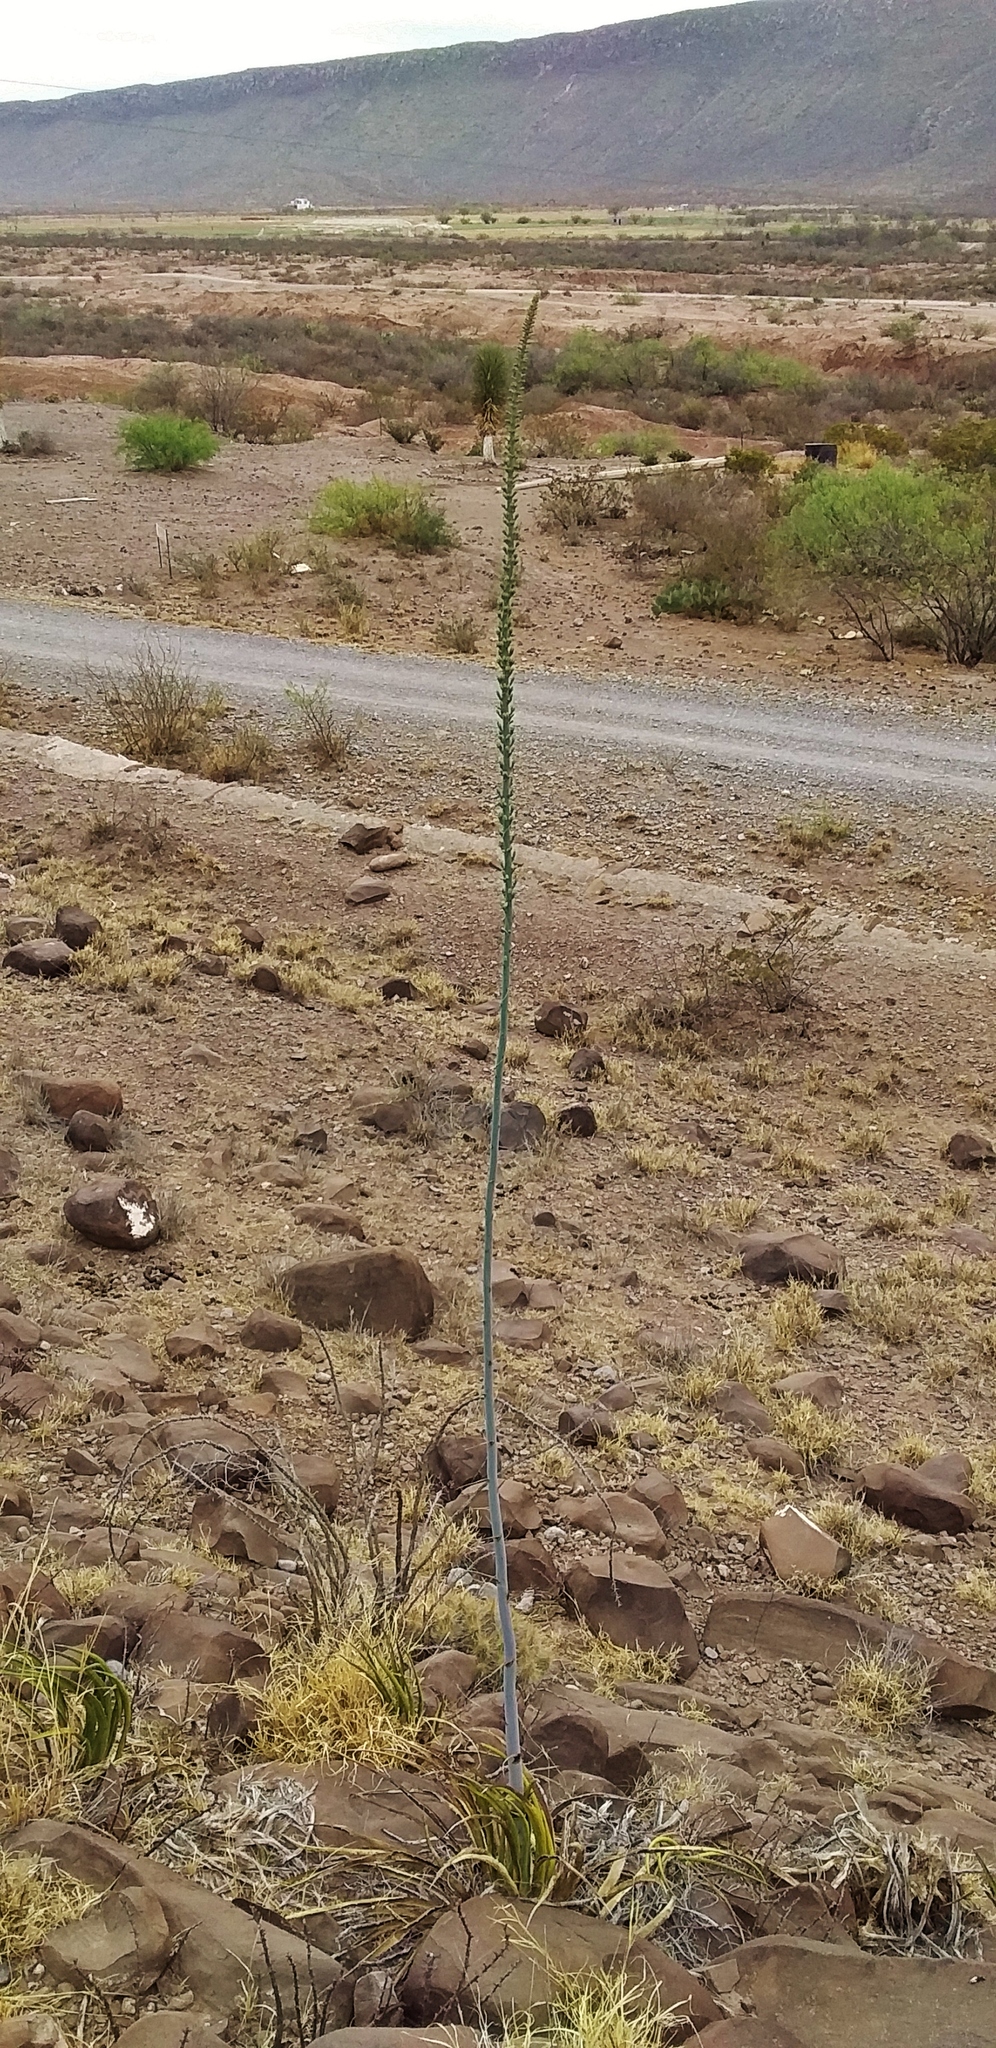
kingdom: Plantae
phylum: Tracheophyta
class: Liliopsida
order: Asparagales
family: Asparagaceae
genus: Agave
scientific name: Agave lechuguilla
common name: Lecheguilla agave
